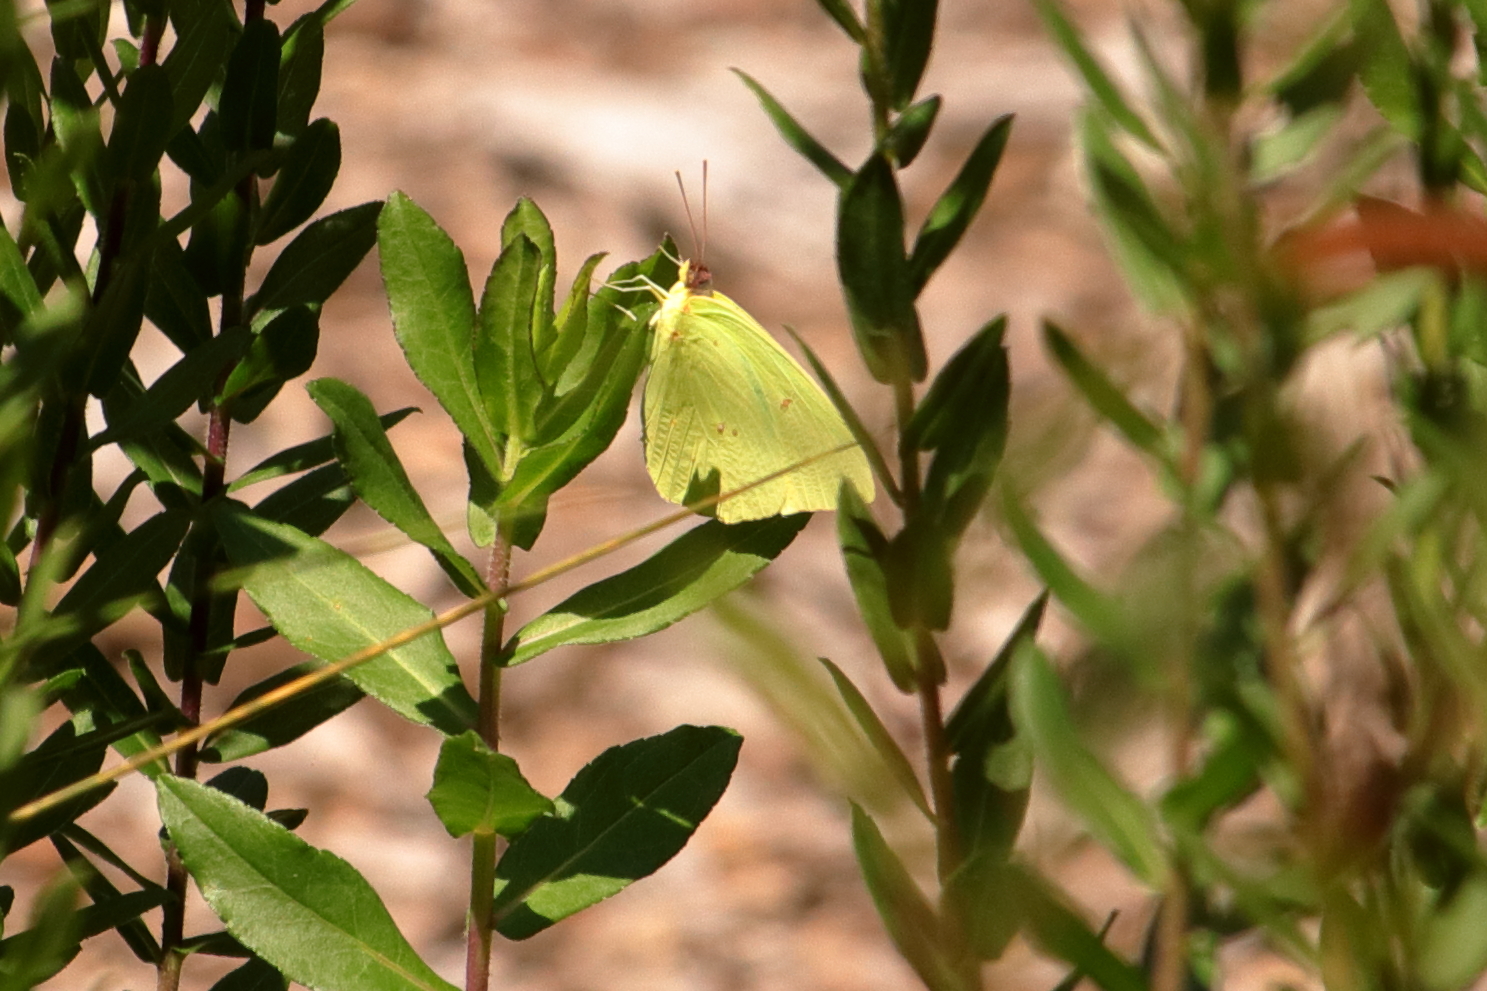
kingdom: Animalia
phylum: Arthropoda
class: Insecta
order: Lepidoptera
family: Pieridae
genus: Phoebis
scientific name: Phoebis sennae
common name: Cloudless sulphur
